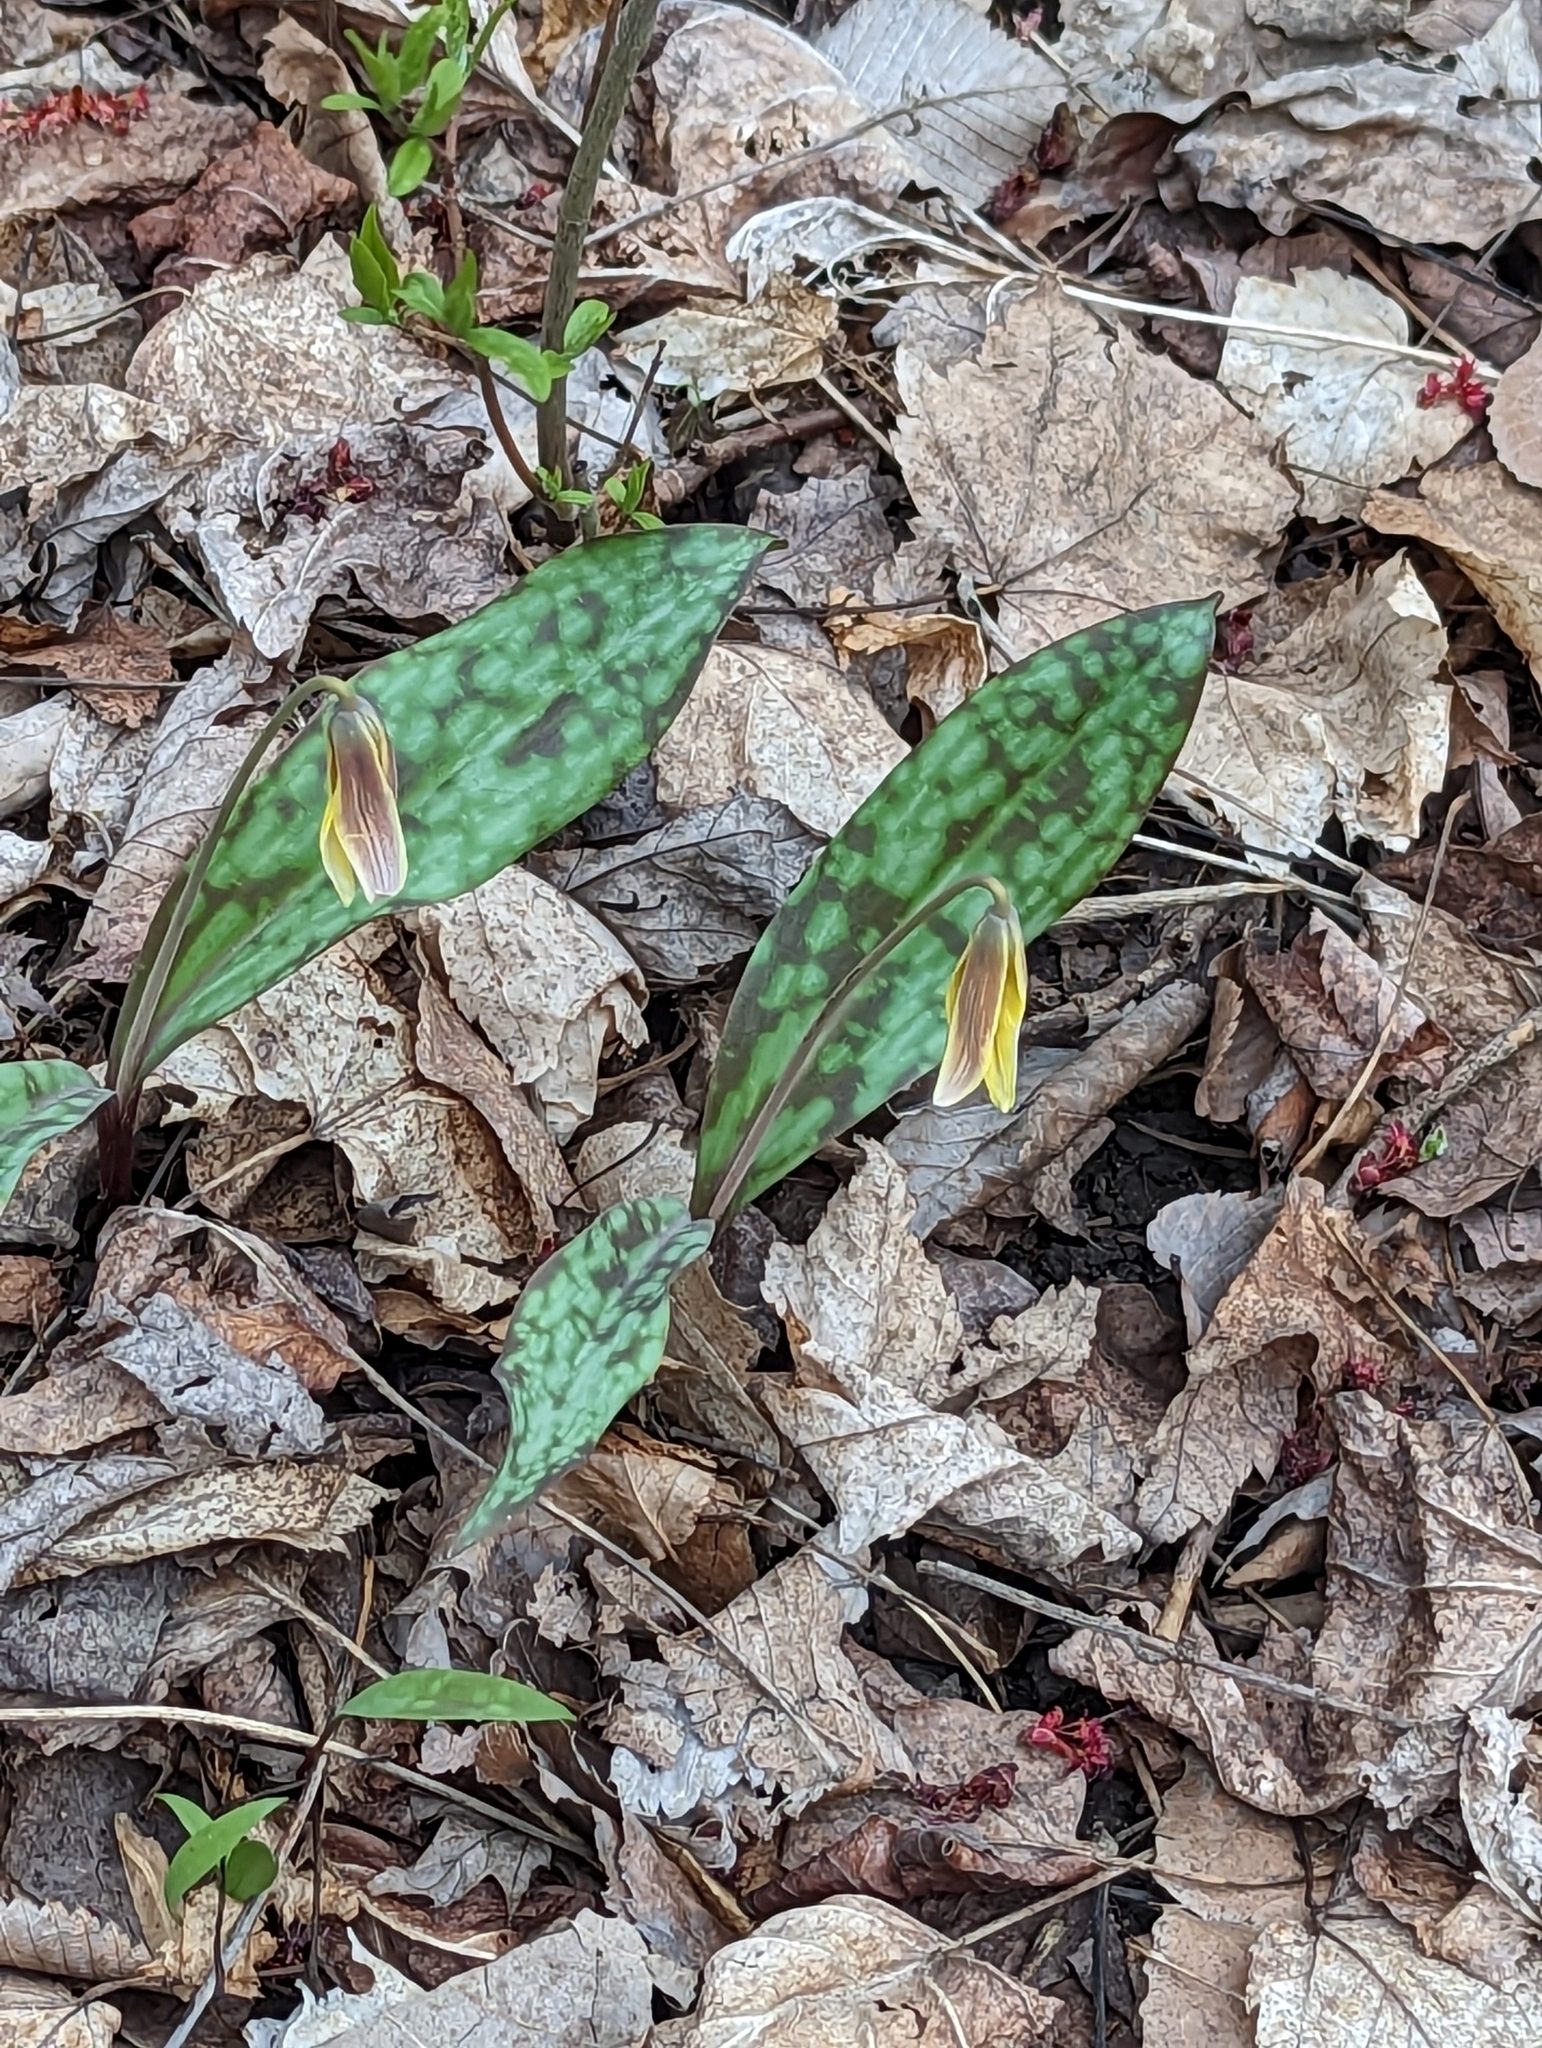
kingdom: Plantae
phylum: Tracheophyta
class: Liliopsida
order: Liliales
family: Liliaceae
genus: Erythronium
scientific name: Erythronium americanum
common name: Yellow adder's-tongue
